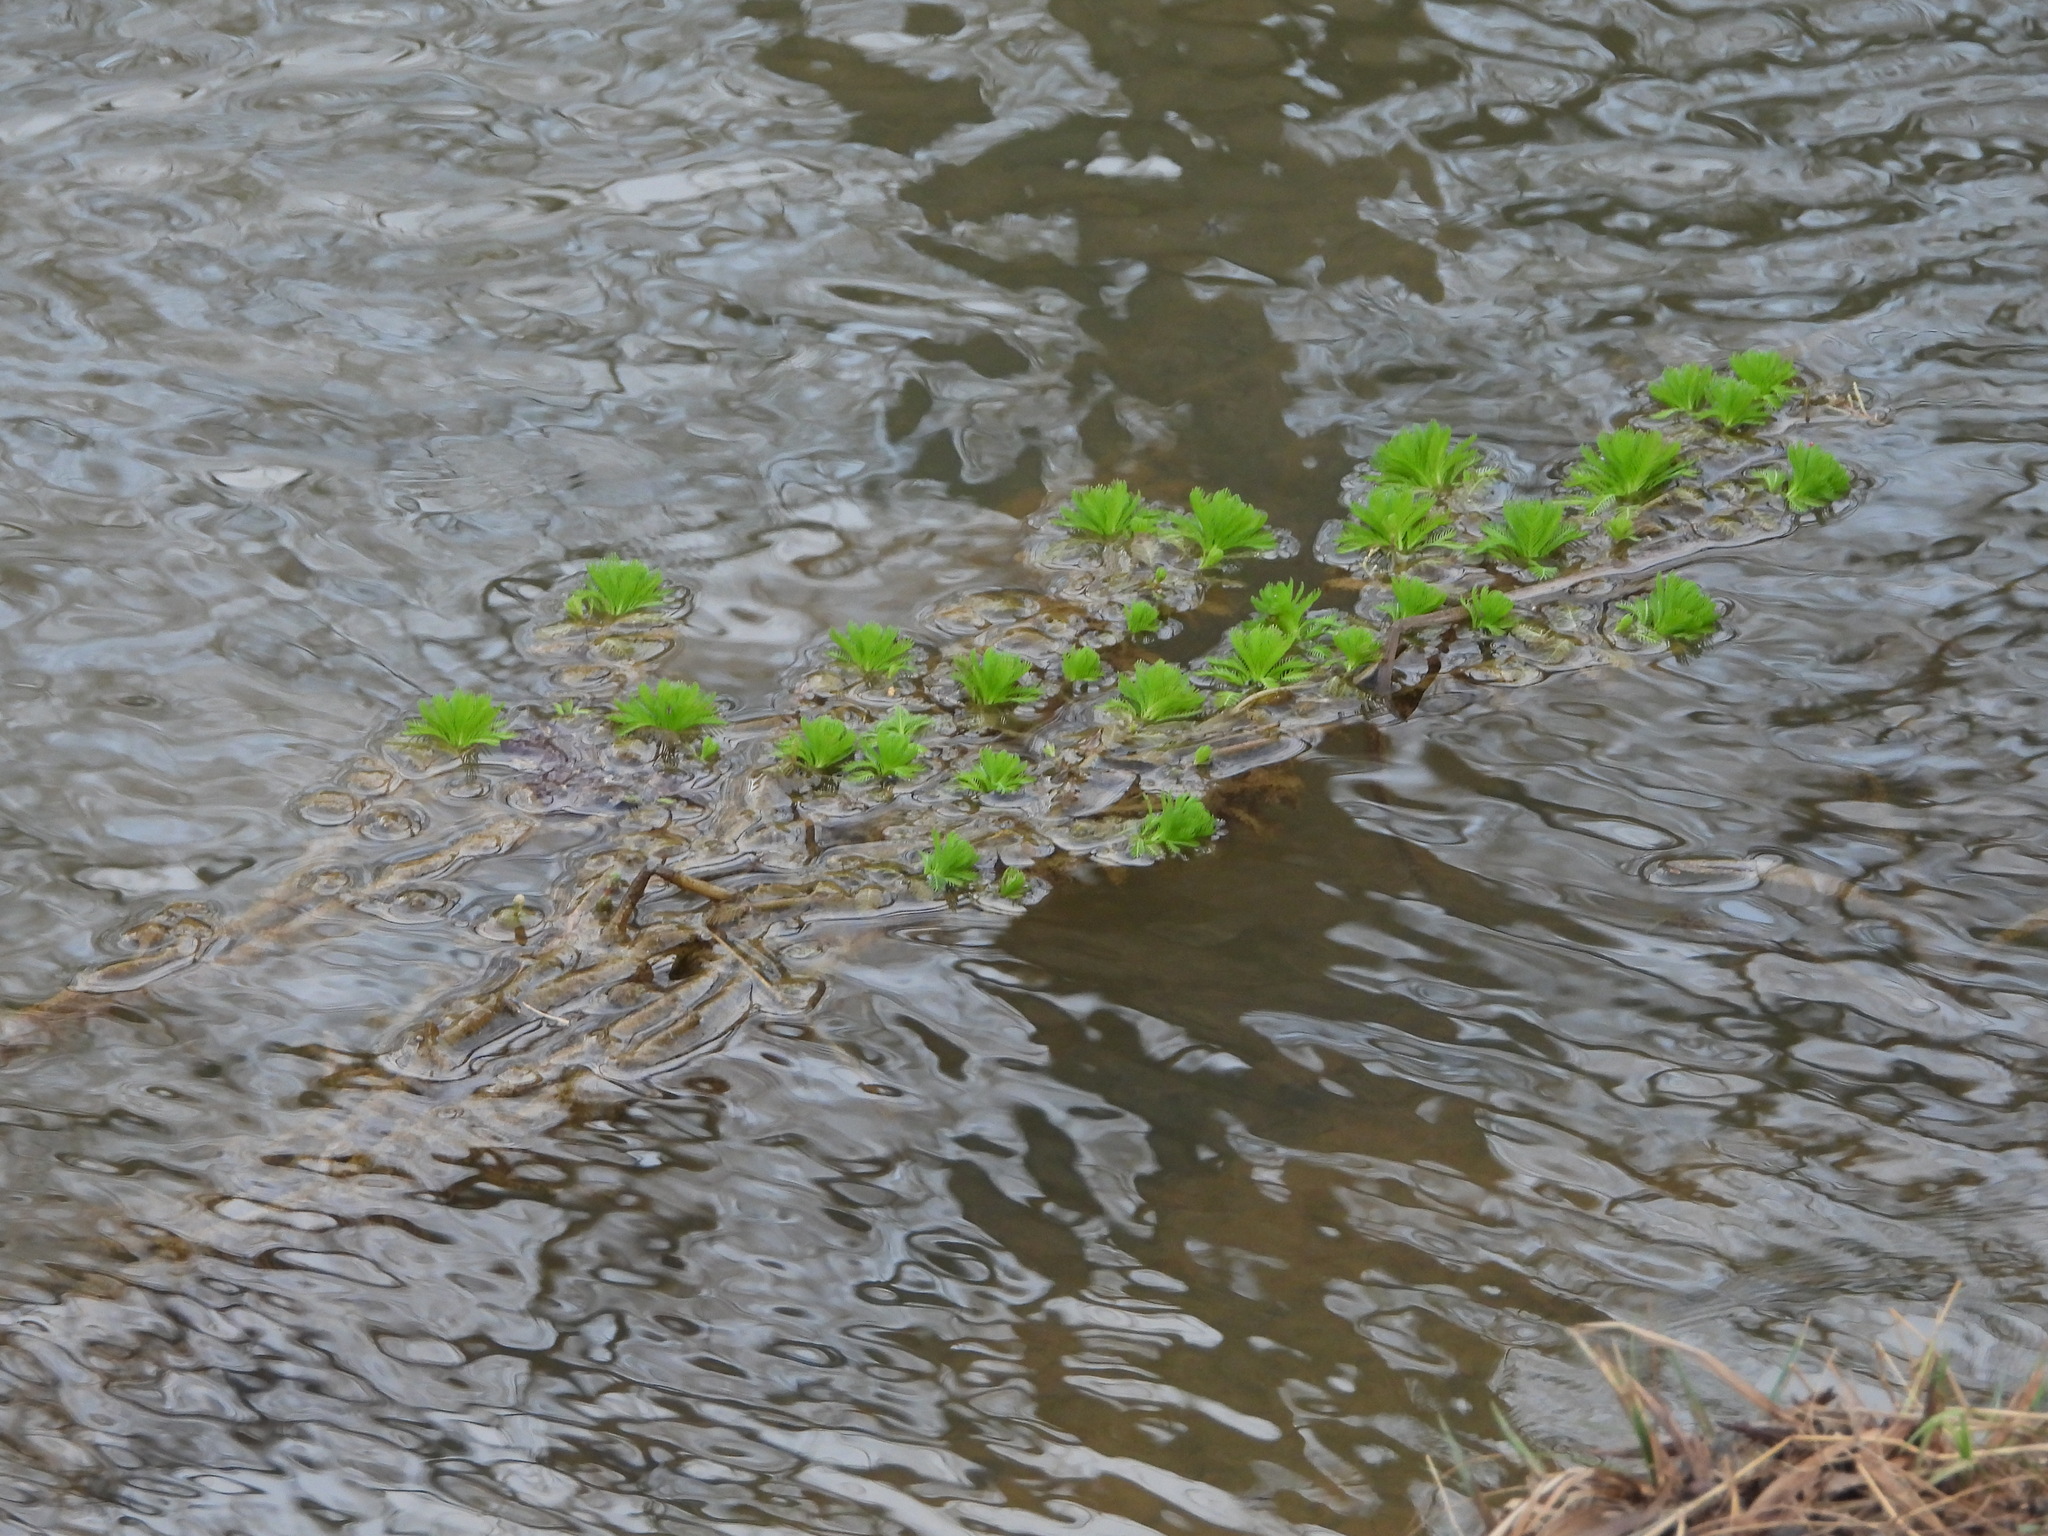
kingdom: Plantae
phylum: Tracheophyta
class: Magnoliopsida
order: Saxifragales
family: Haloragaceae
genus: Myriophyllum
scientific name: Myriophyllum aquaticum
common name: Parrot's feather
